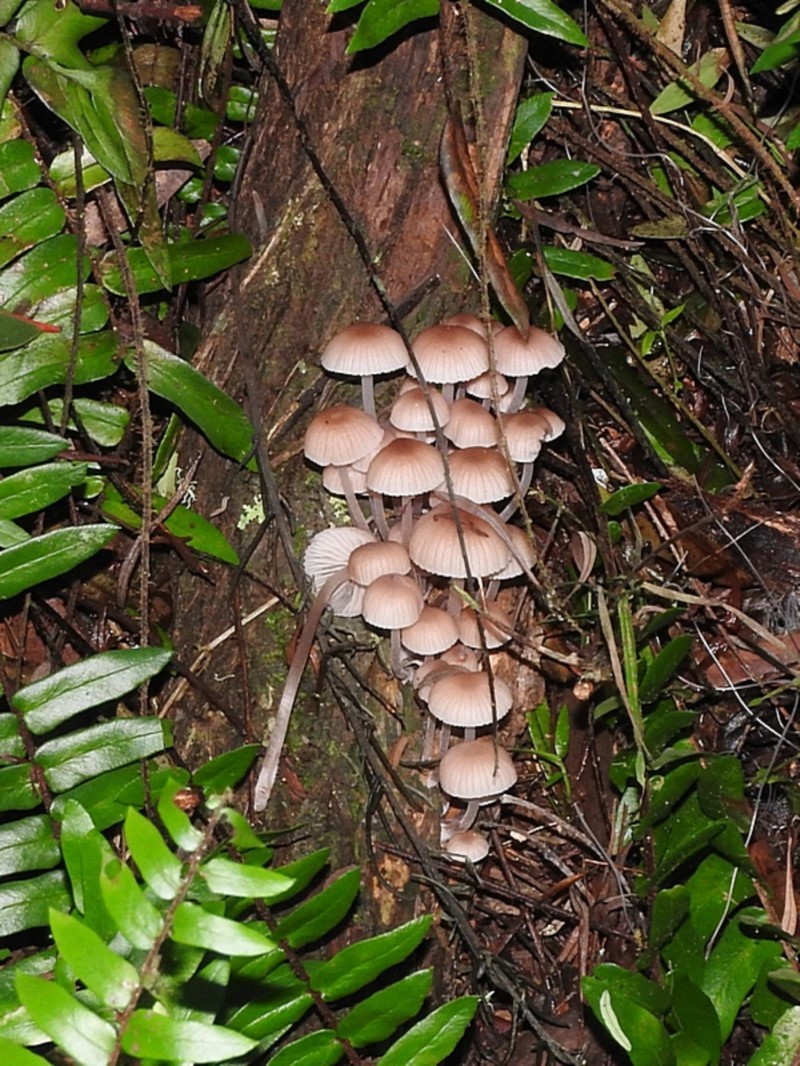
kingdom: Fungi
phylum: Basidiomycota
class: Agaricomycetes
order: Agaricales
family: Mycenaceae
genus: Mycena
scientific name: Mycena clarkeana
